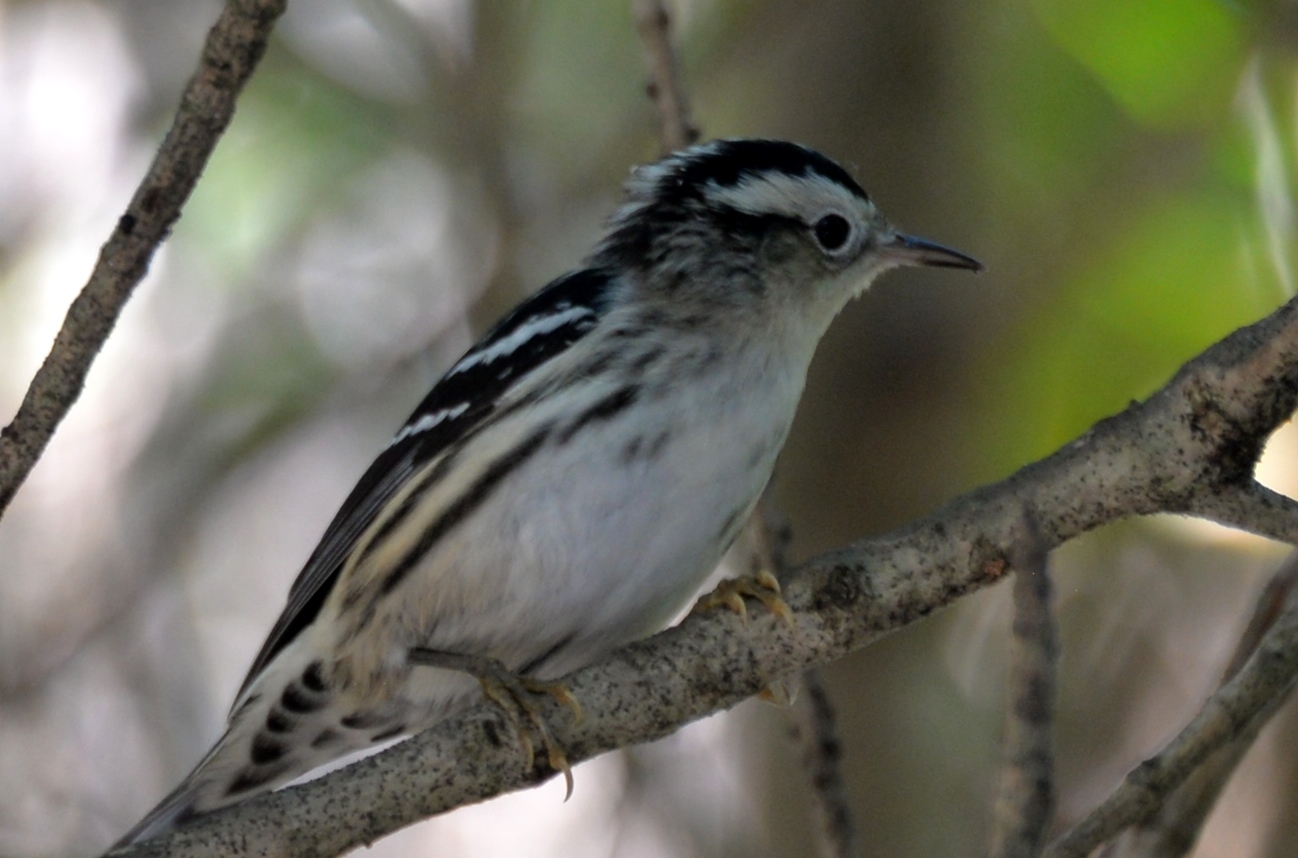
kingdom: Animalia
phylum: Chordata
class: Aves
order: Passeriformes
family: Parulidae
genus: Mniotilta
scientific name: Mniotilta varia
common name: Black-and-white warbler
